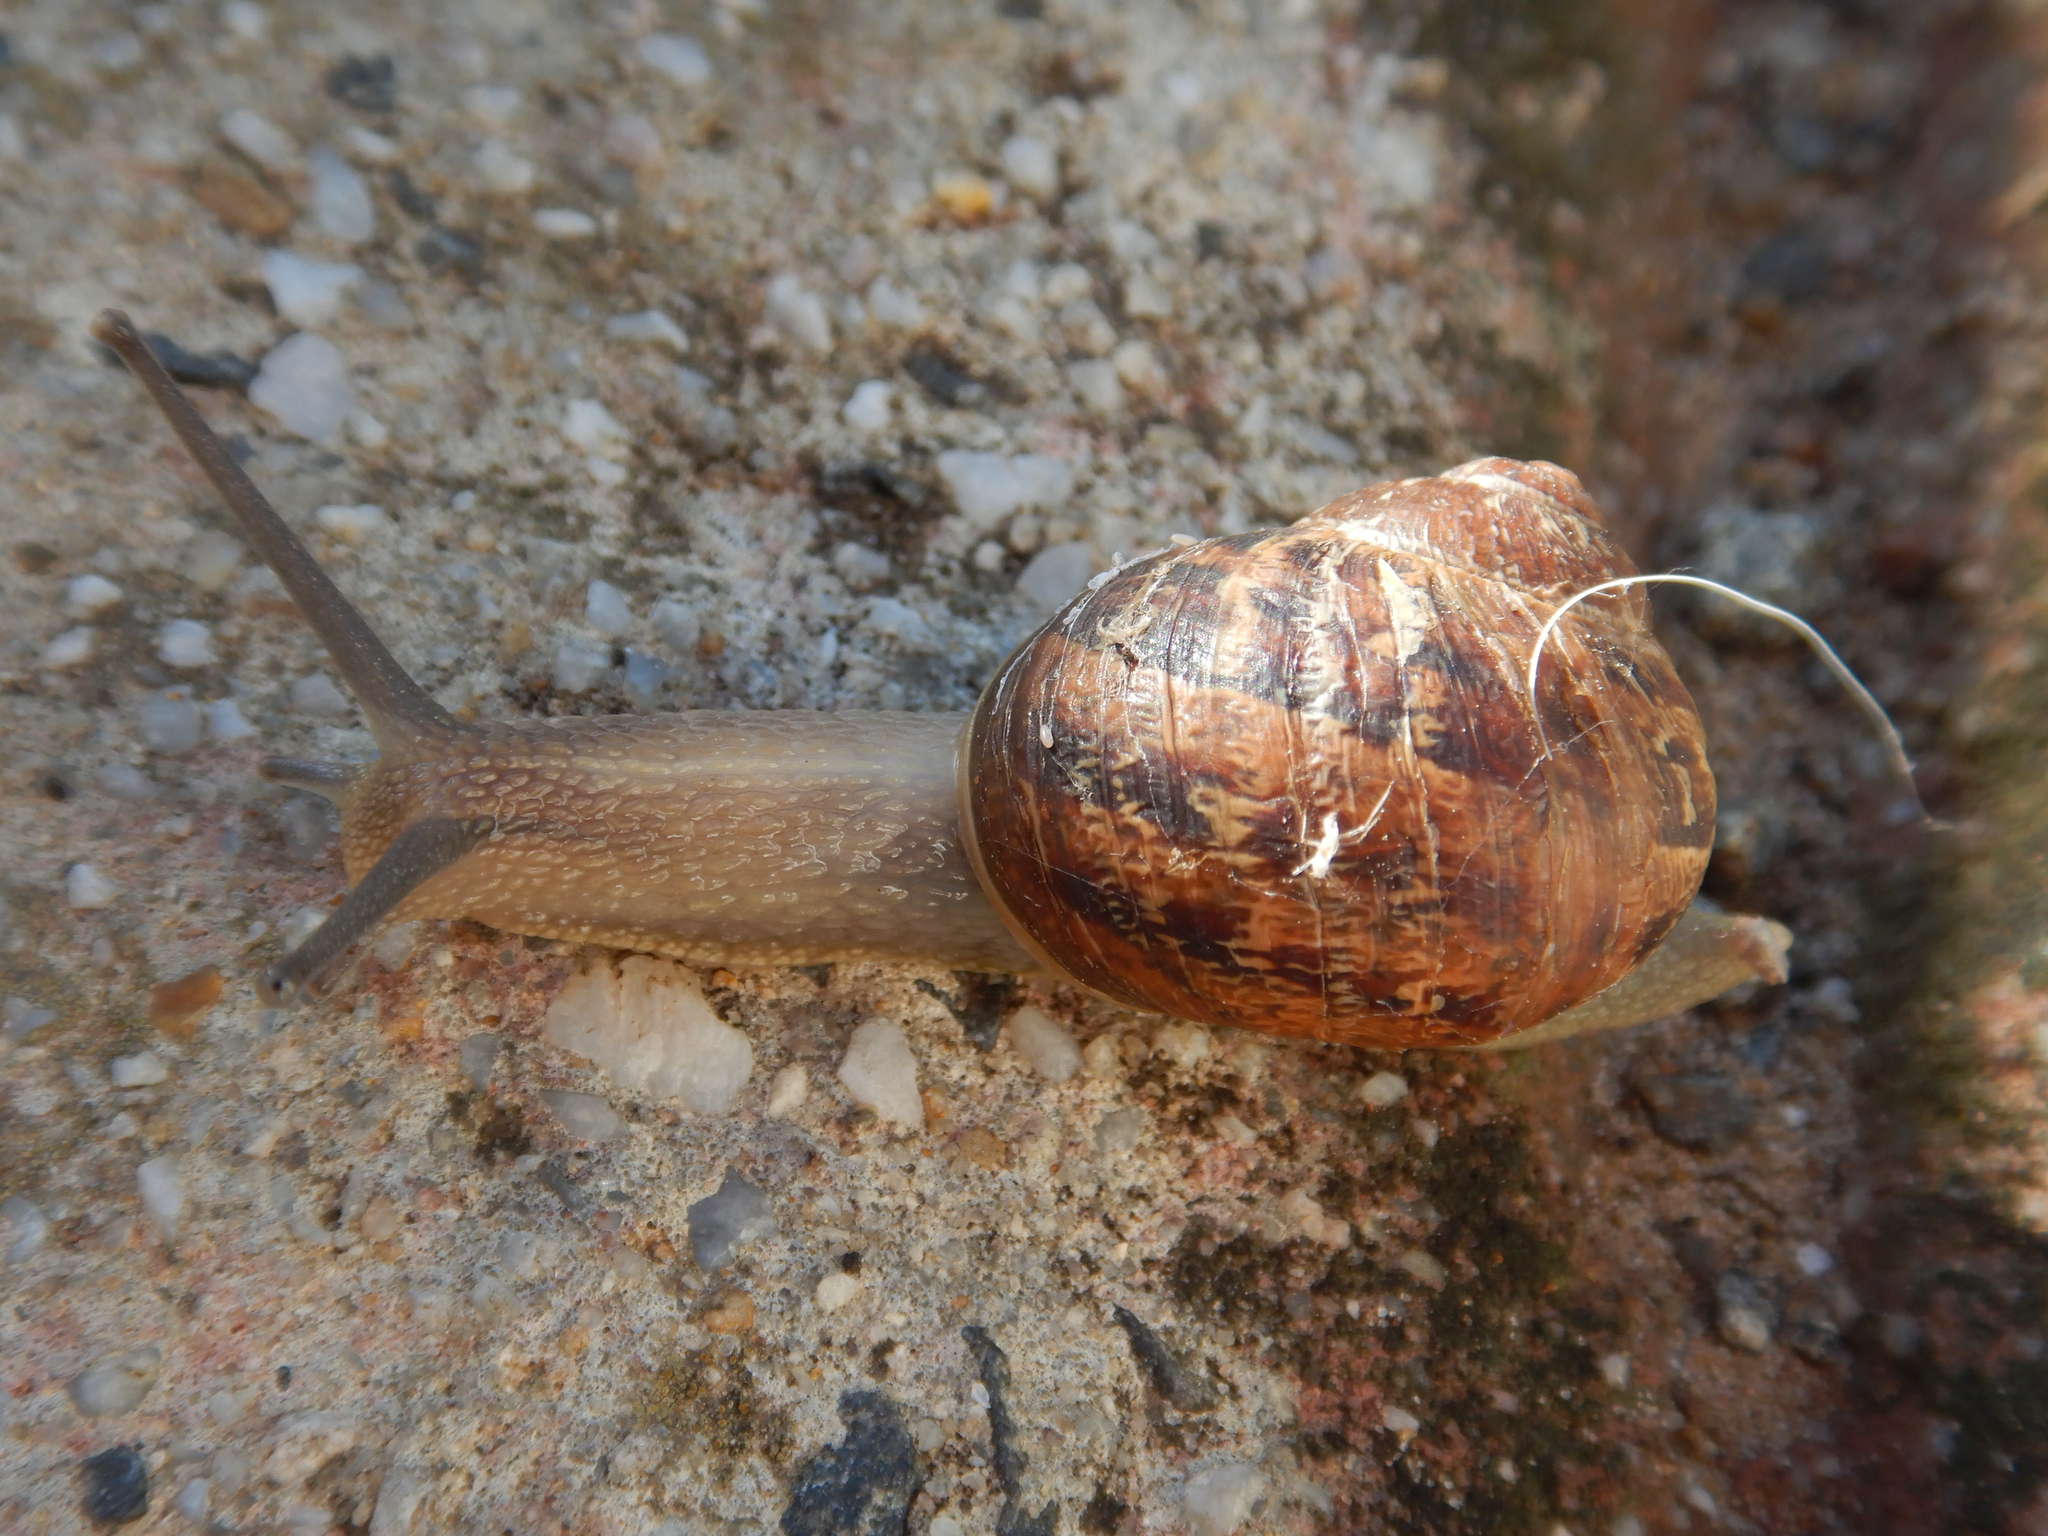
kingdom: Animalia
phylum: Mollusca
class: Gastropoda
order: Stylommatophora
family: Helicidae
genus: Cornu
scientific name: Cornu aspersum
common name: Brown garden snail
